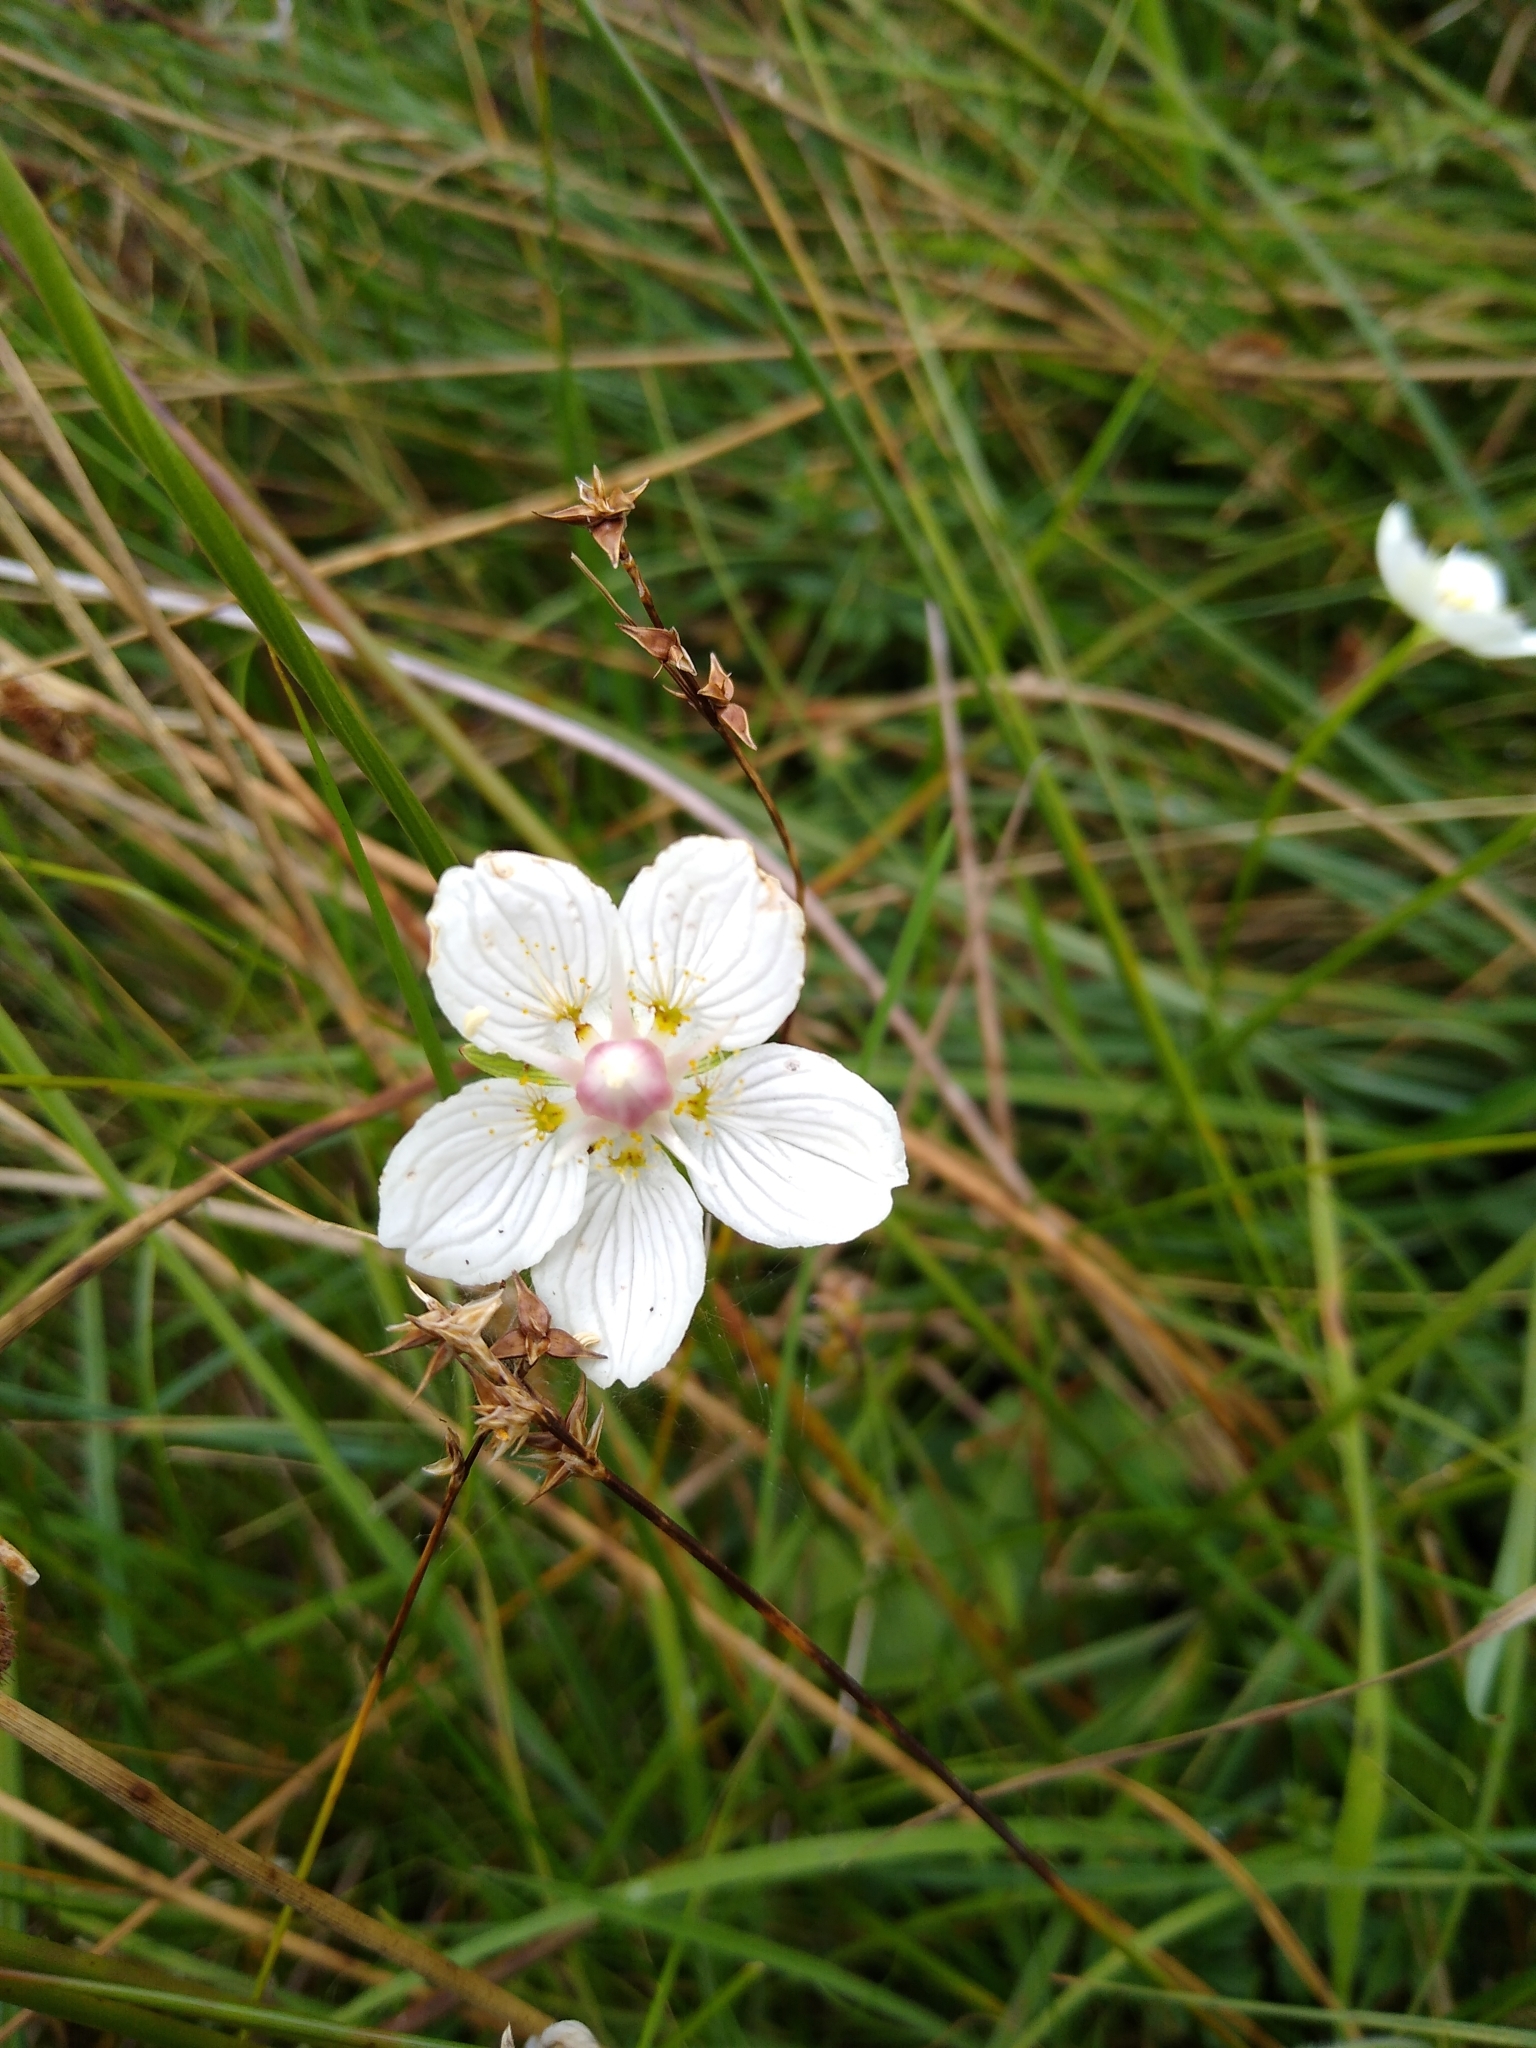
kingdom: Plantae
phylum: Tracheophyta
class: Magnoliopsida
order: Celastrales
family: Parnassiaceae
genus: Parnassia
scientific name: Parnassia palustris
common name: Grass-of-parnassus
